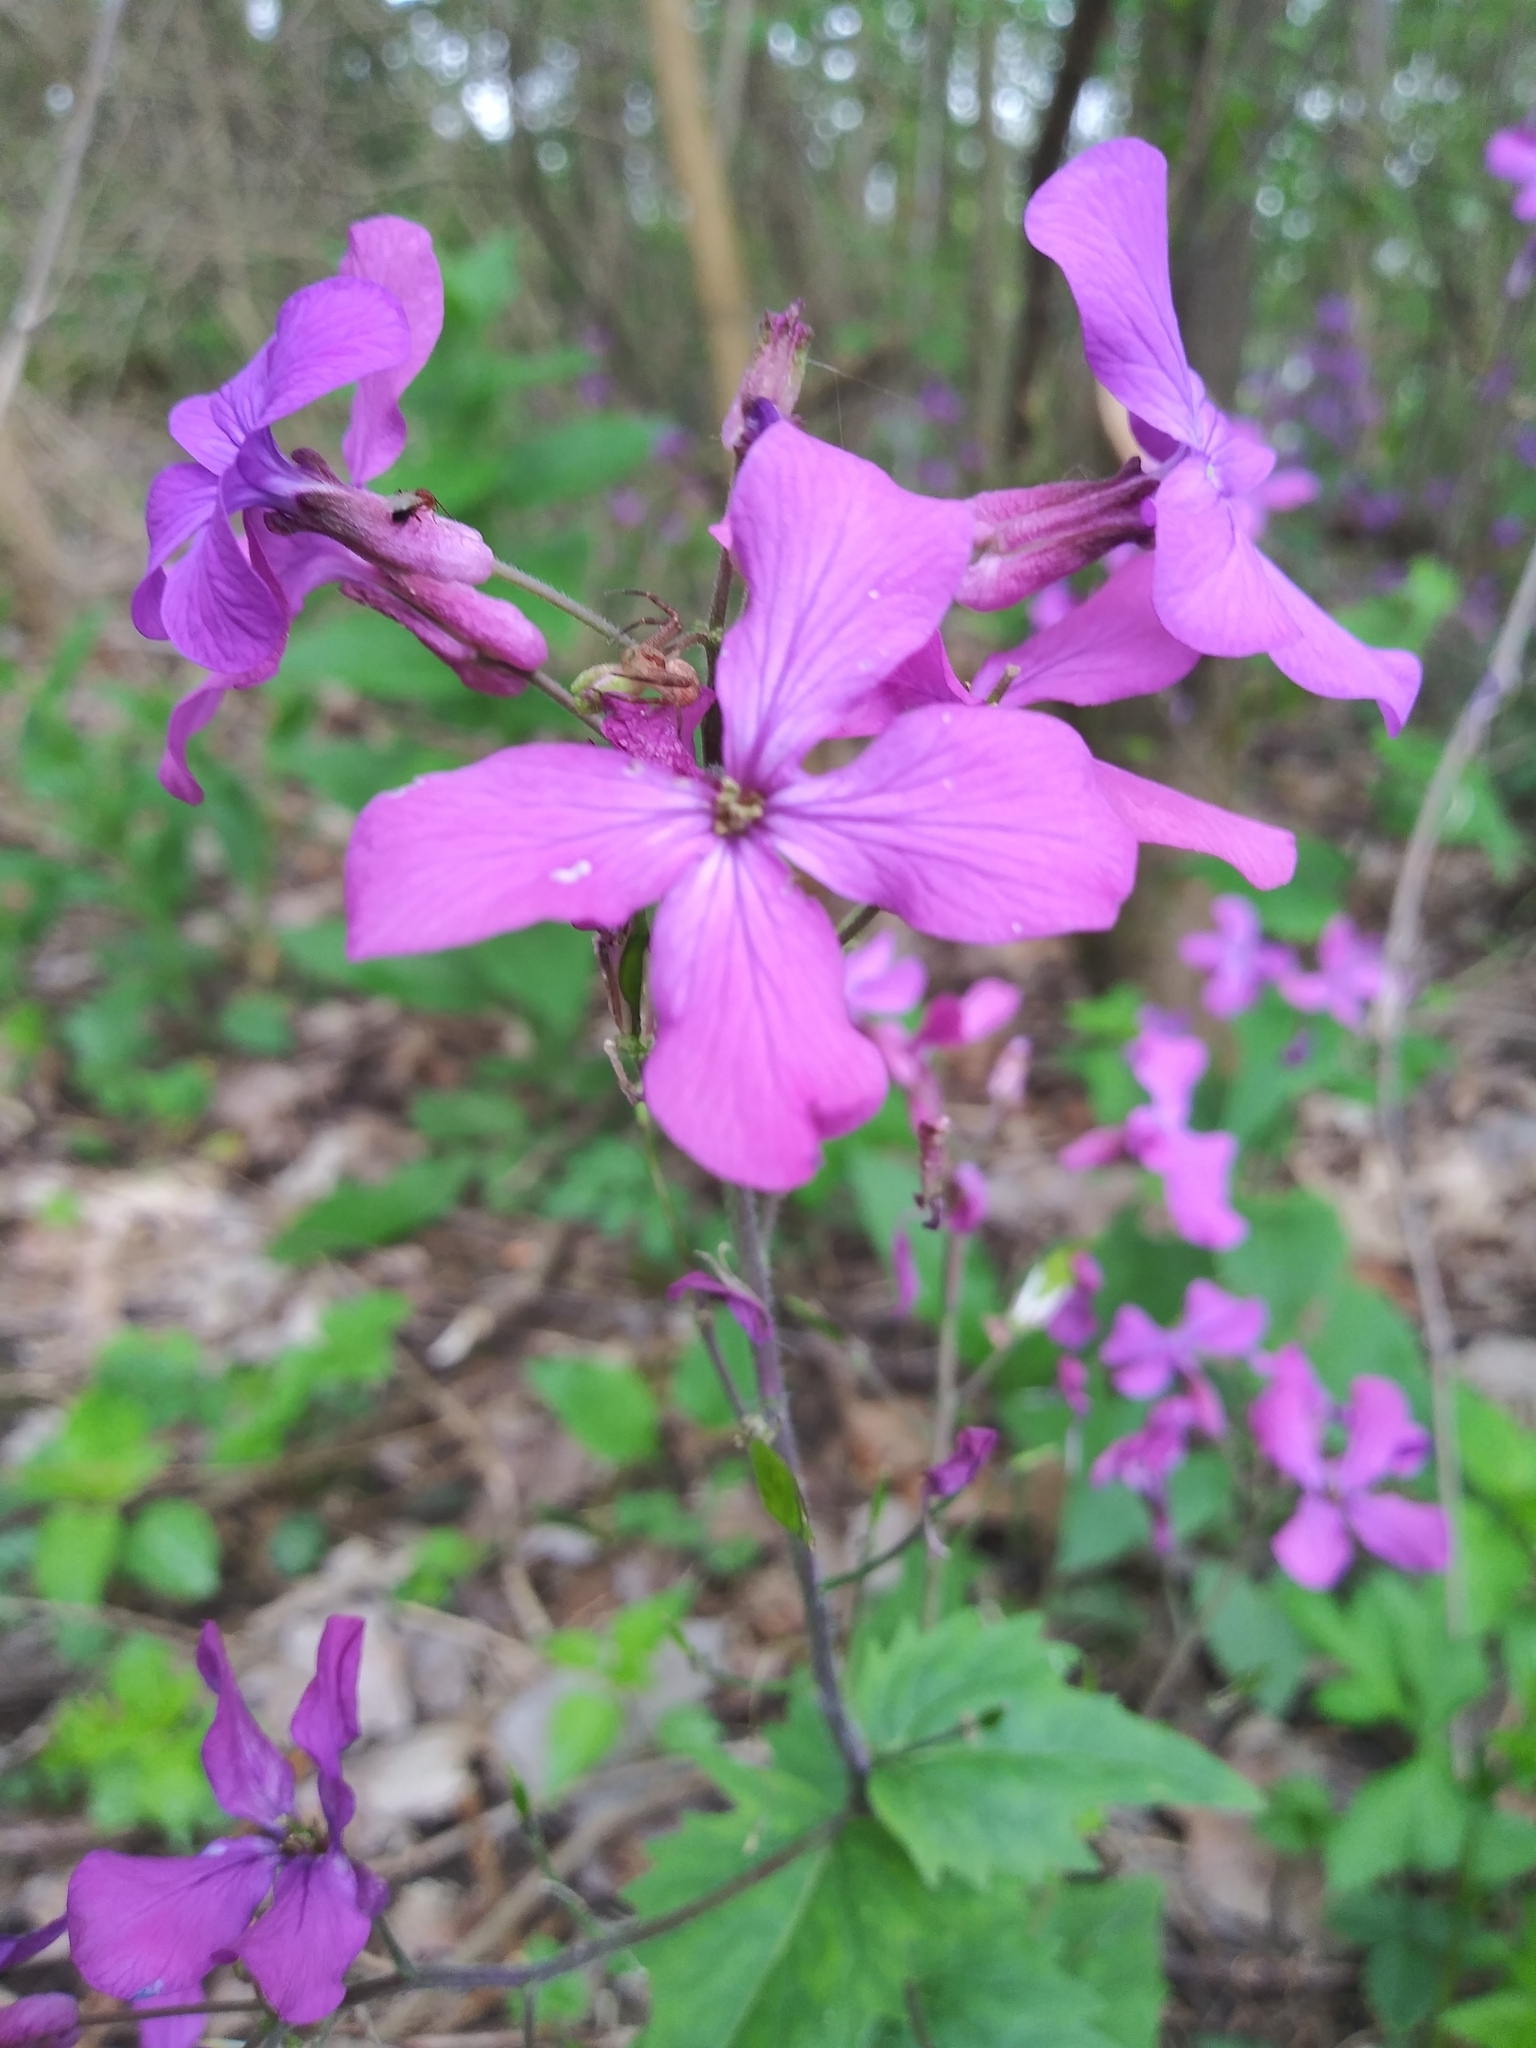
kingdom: Plantae
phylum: Tracheophyta
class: Magnoliopsida
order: Brassicales
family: Brassicaceae
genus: Lunaria
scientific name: Lunaria annua
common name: Honesty
